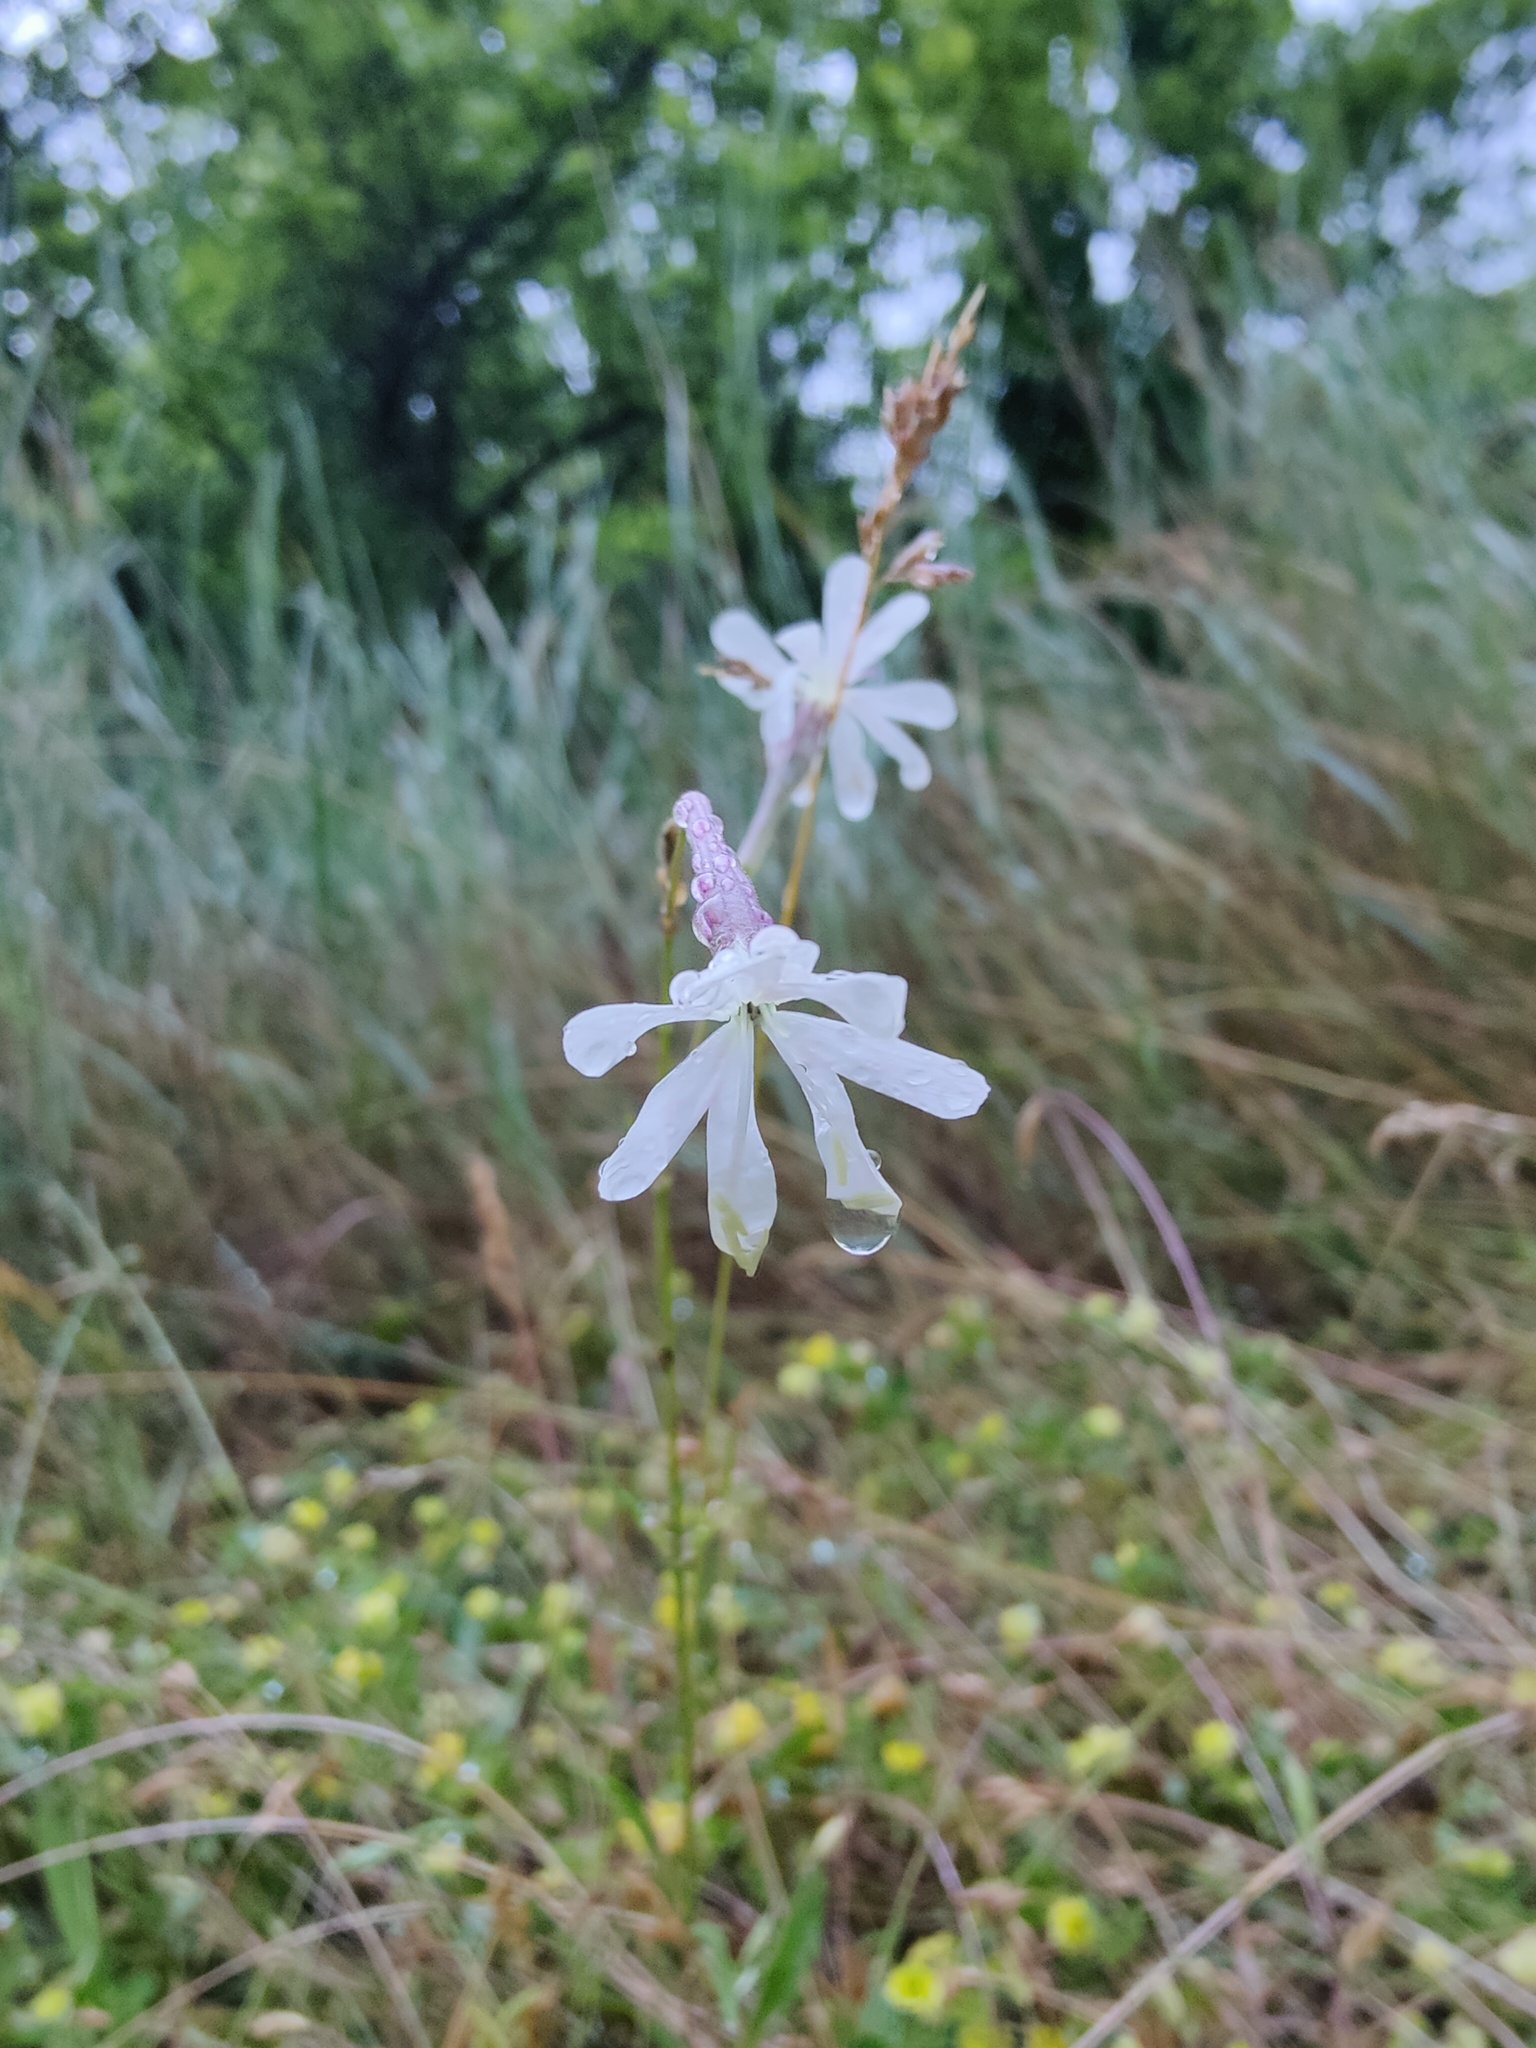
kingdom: Plantae
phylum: Tracheophyta
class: Magnoliopsida
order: Caryophyllales
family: Caryophyllaceae
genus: Silene
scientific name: Silene italica
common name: Italian catchfly
